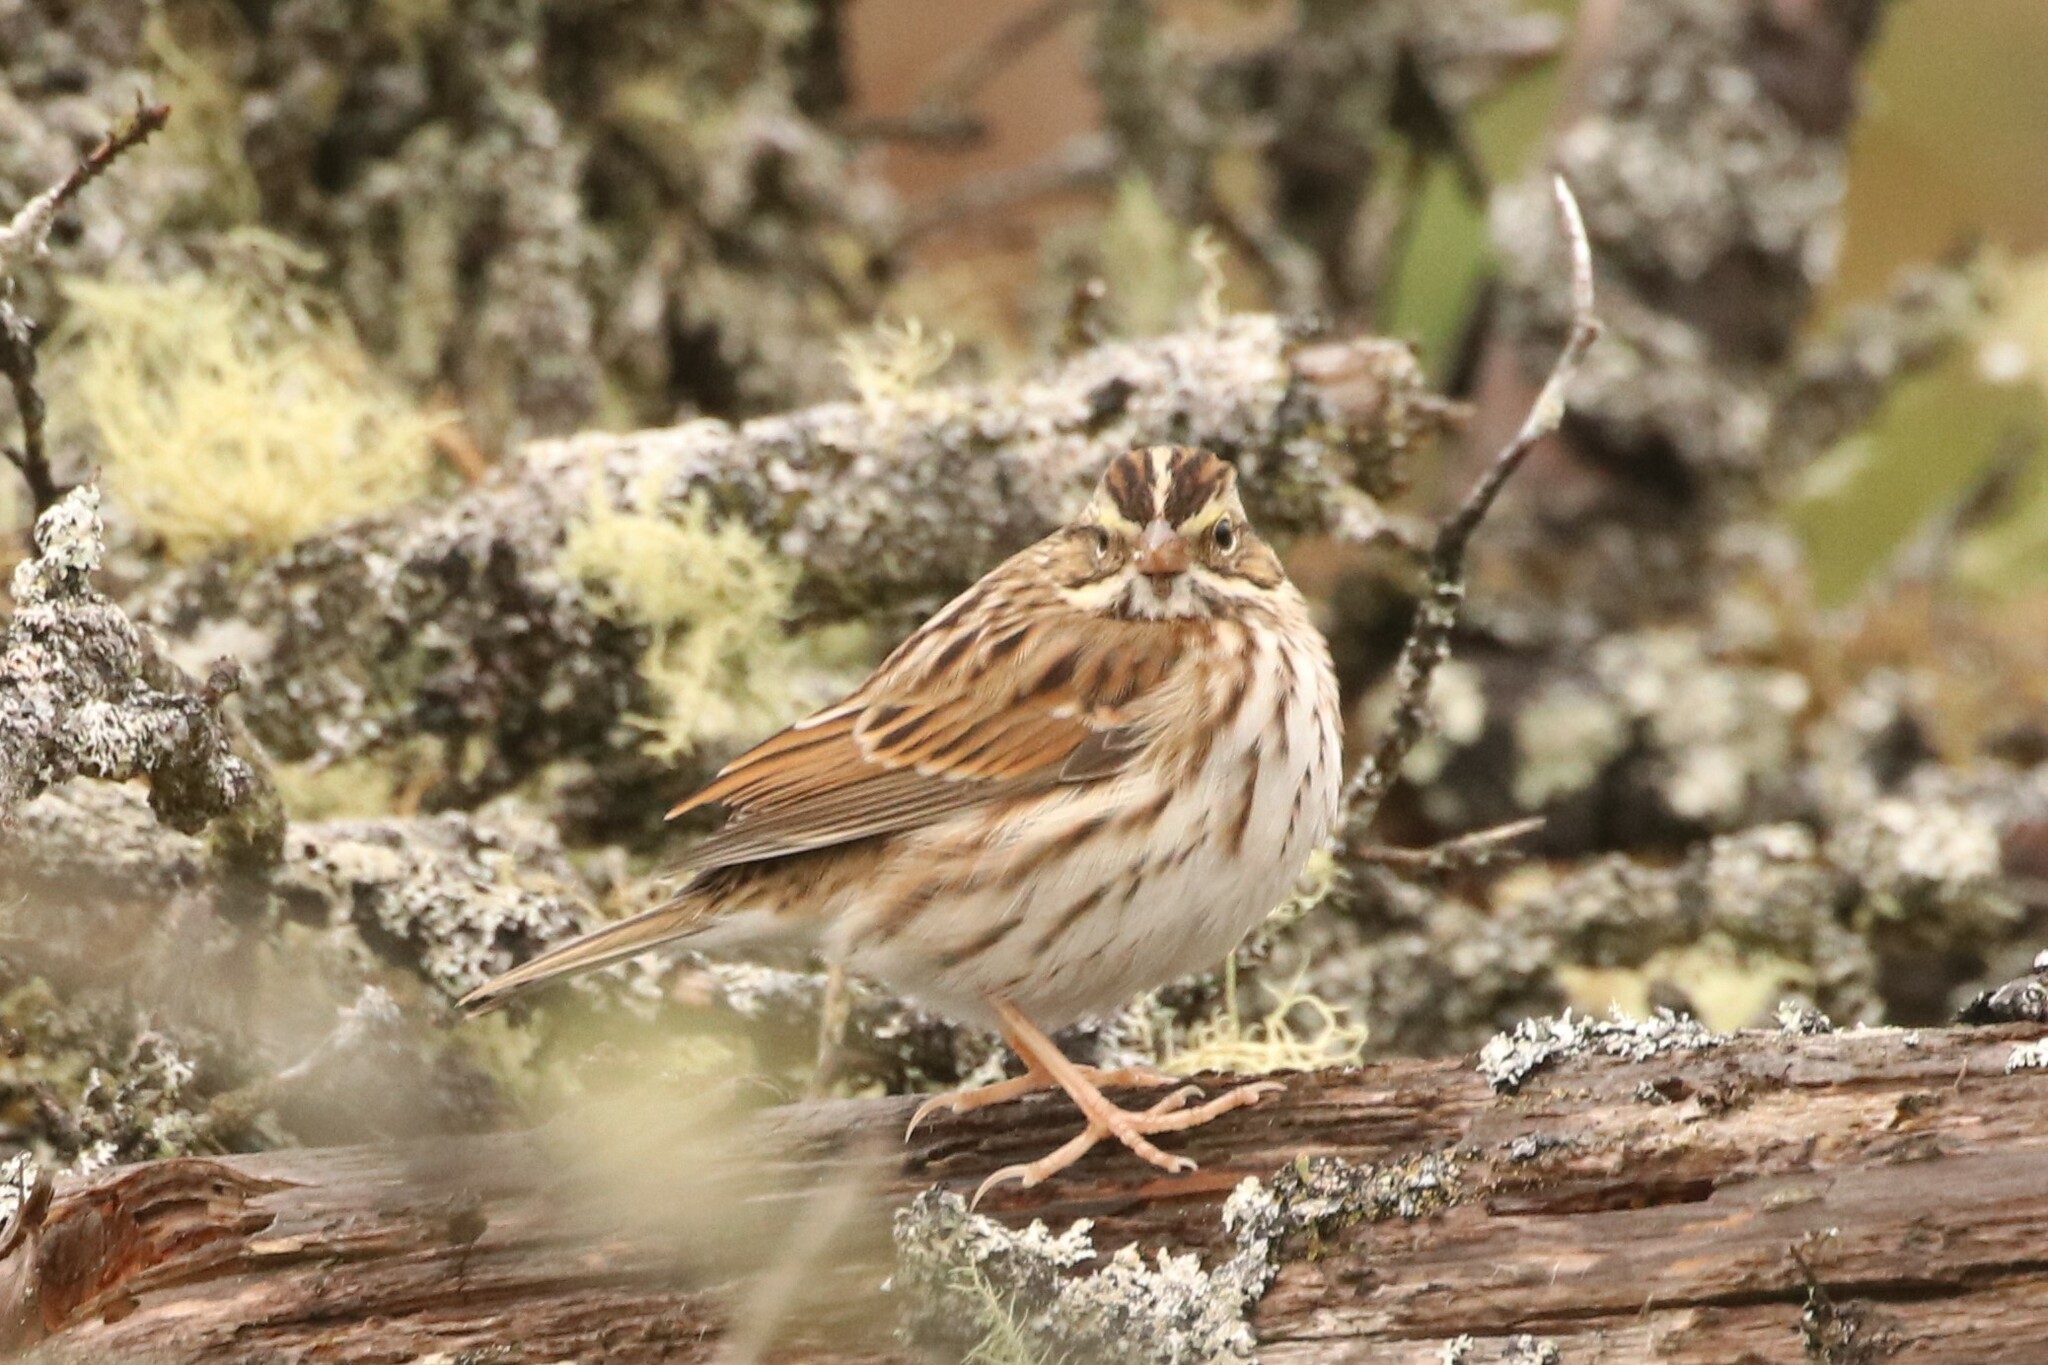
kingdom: Animalia
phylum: Chordata
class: Aves
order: Passeriformes
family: Passerellidae
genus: Passerculus
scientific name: Passerculus sandwichensis
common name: Savannah sparrow
